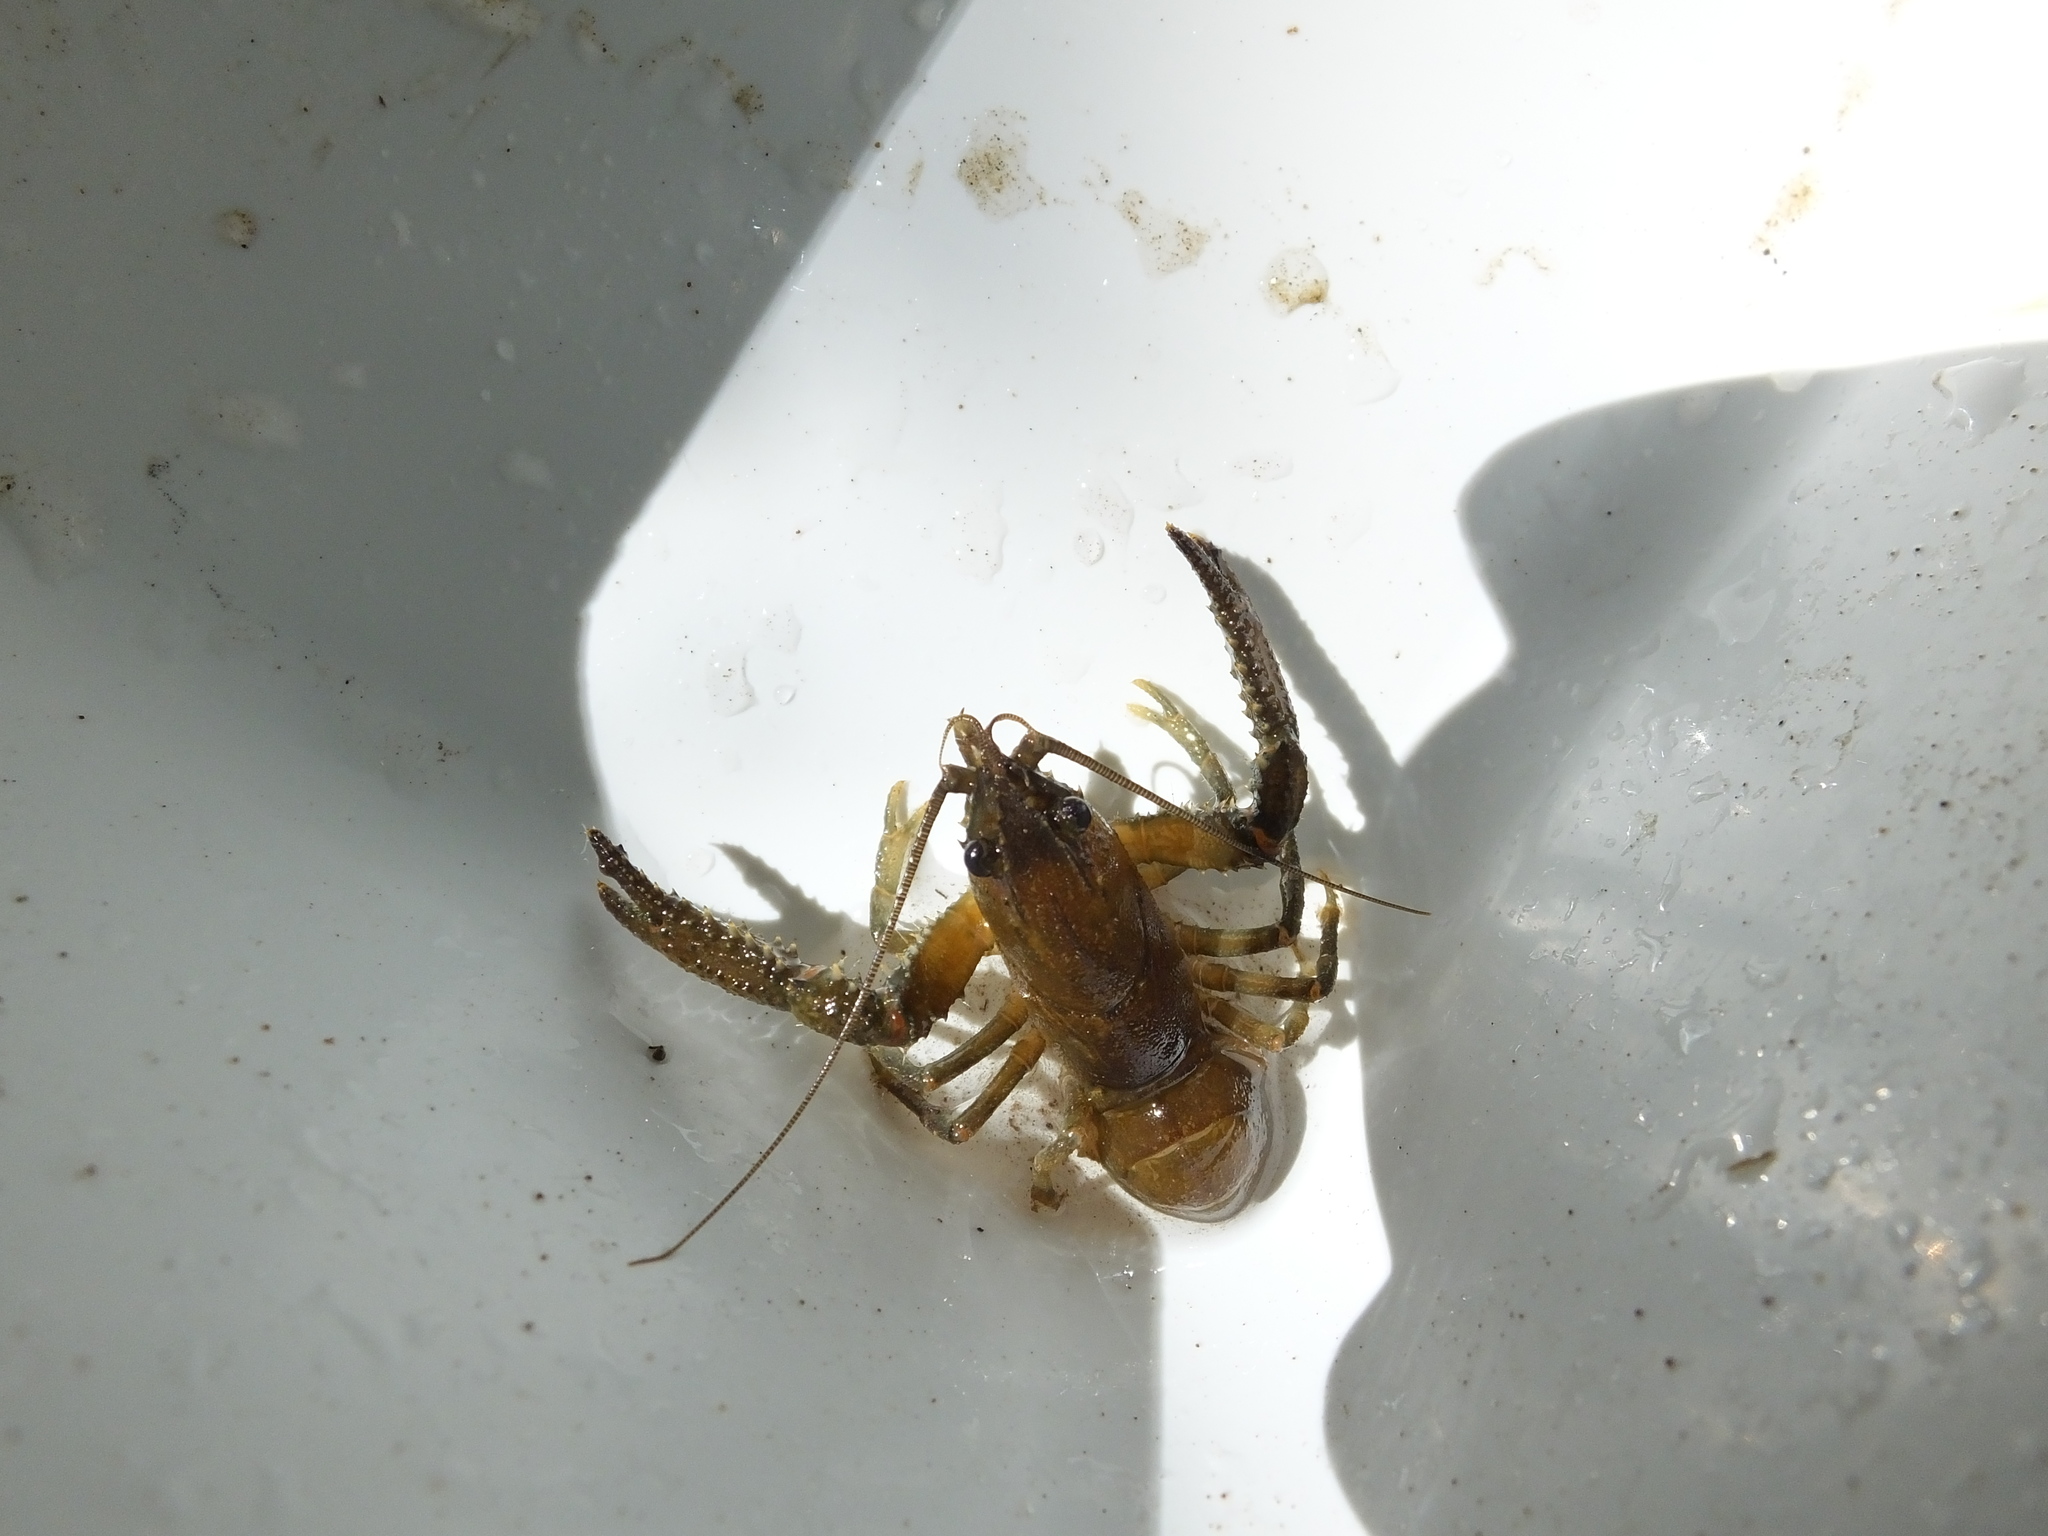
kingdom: Animalia
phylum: Arthropoda
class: Malacostraca
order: Decapoda
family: Parastacidae
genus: Paranephrops
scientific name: Paranephrops planifrons
